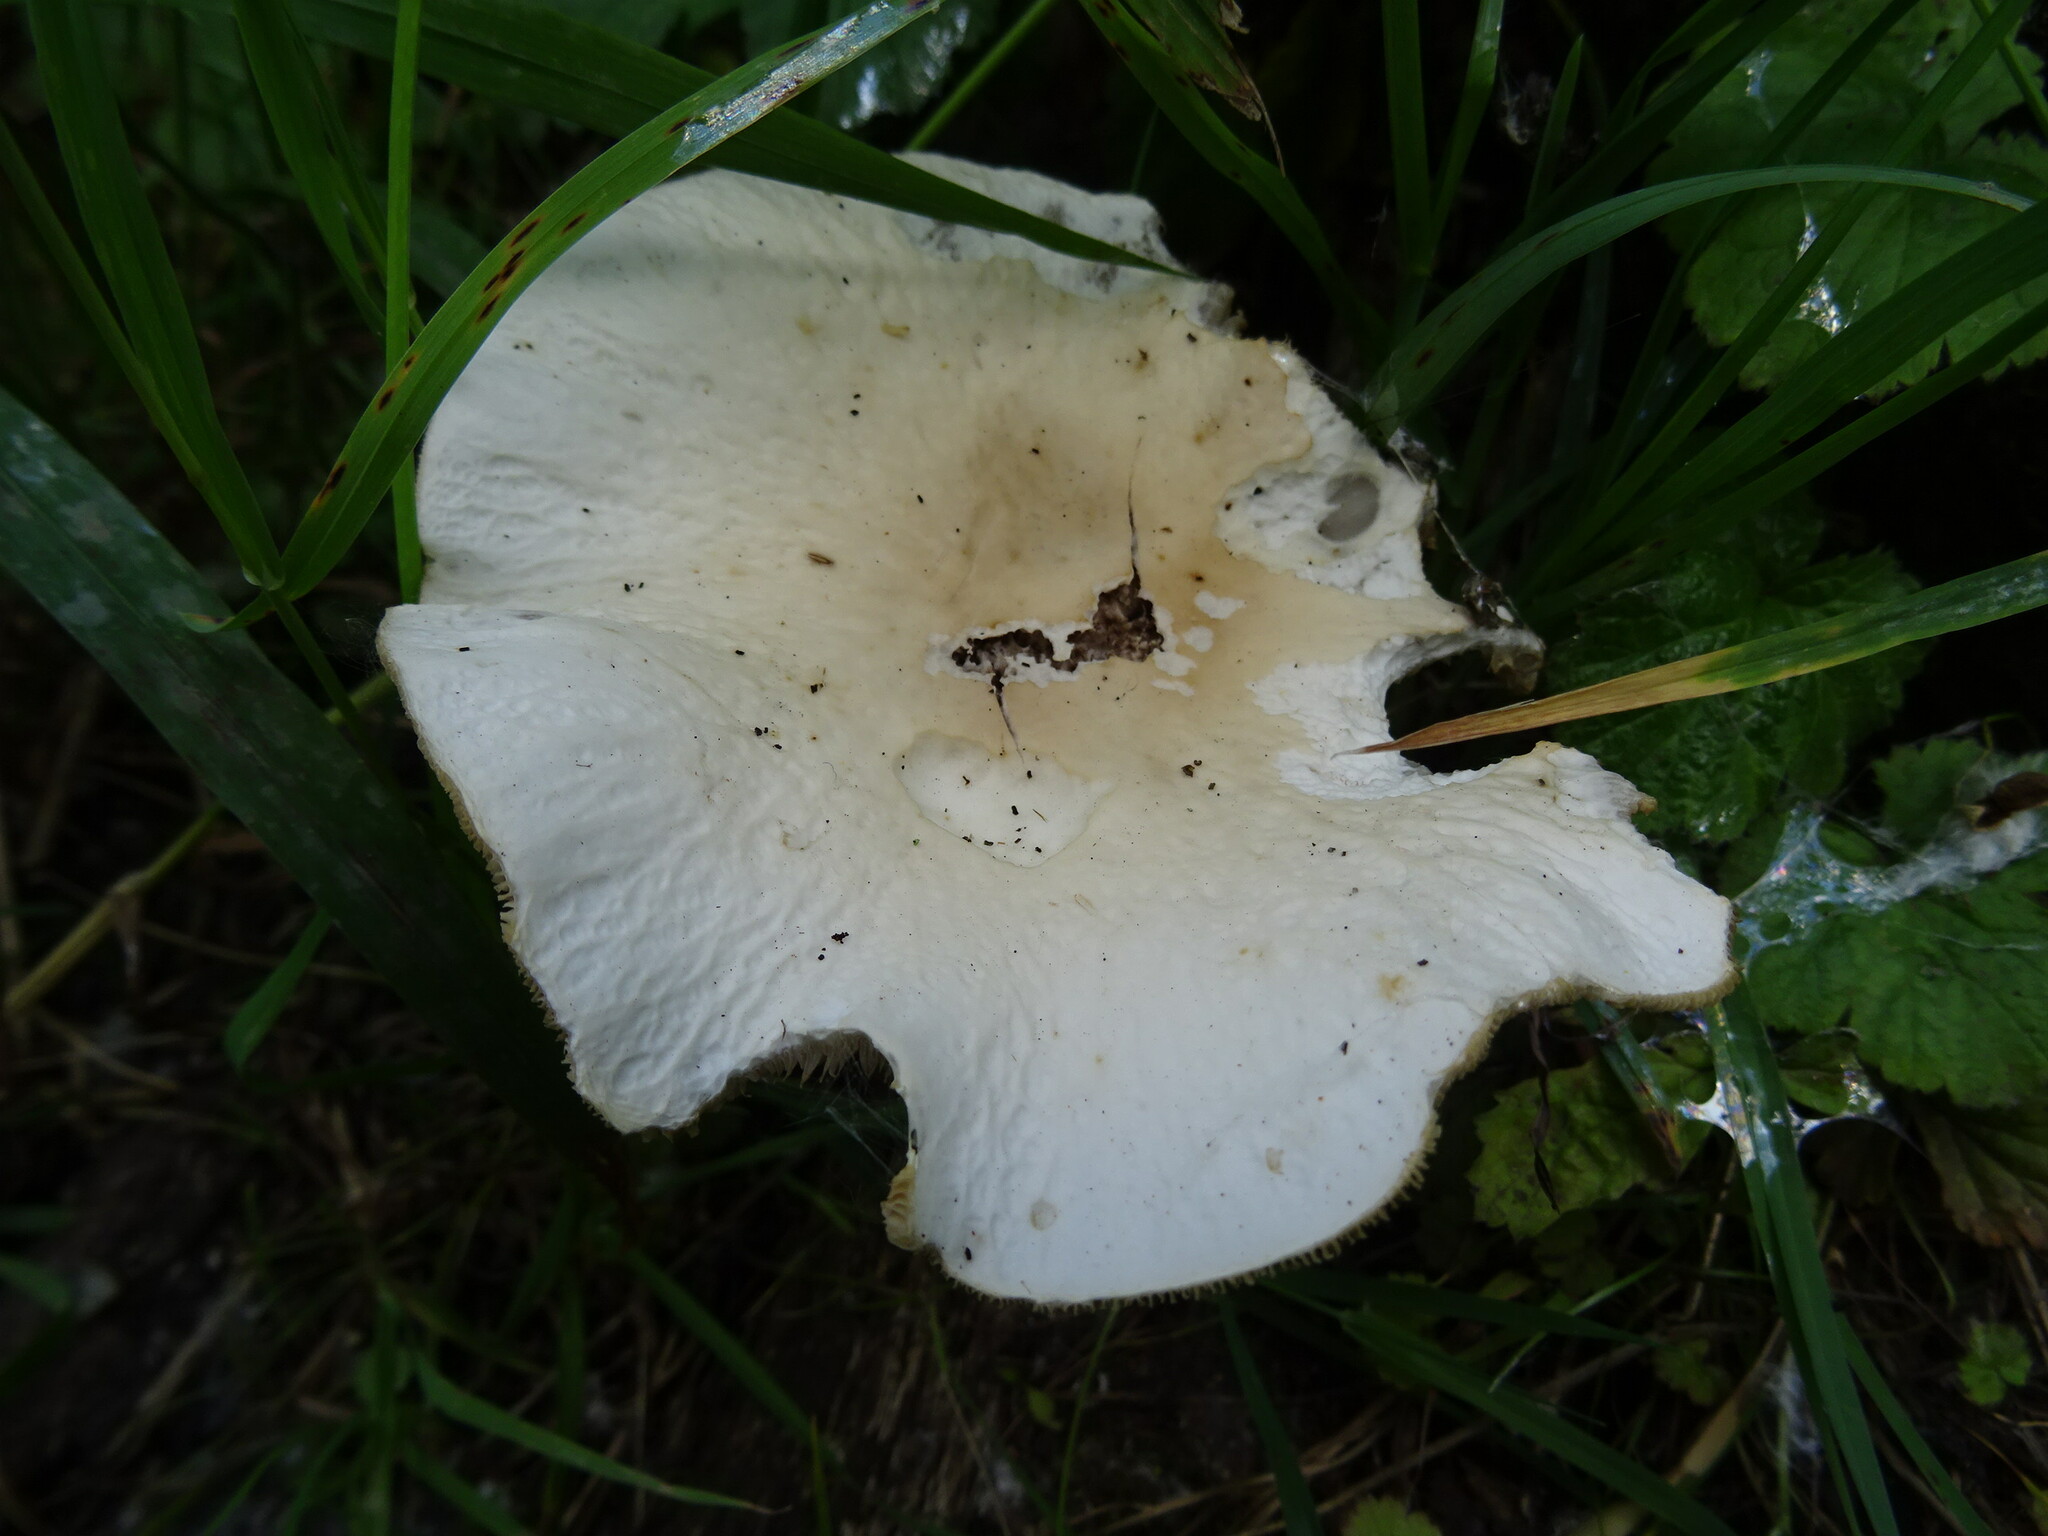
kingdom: Fungi
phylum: Basidiomycota
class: Agaricomycetes
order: Agaricales
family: Tubariaceae
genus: Cyclocybe
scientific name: Cyclocybe cylindracea
